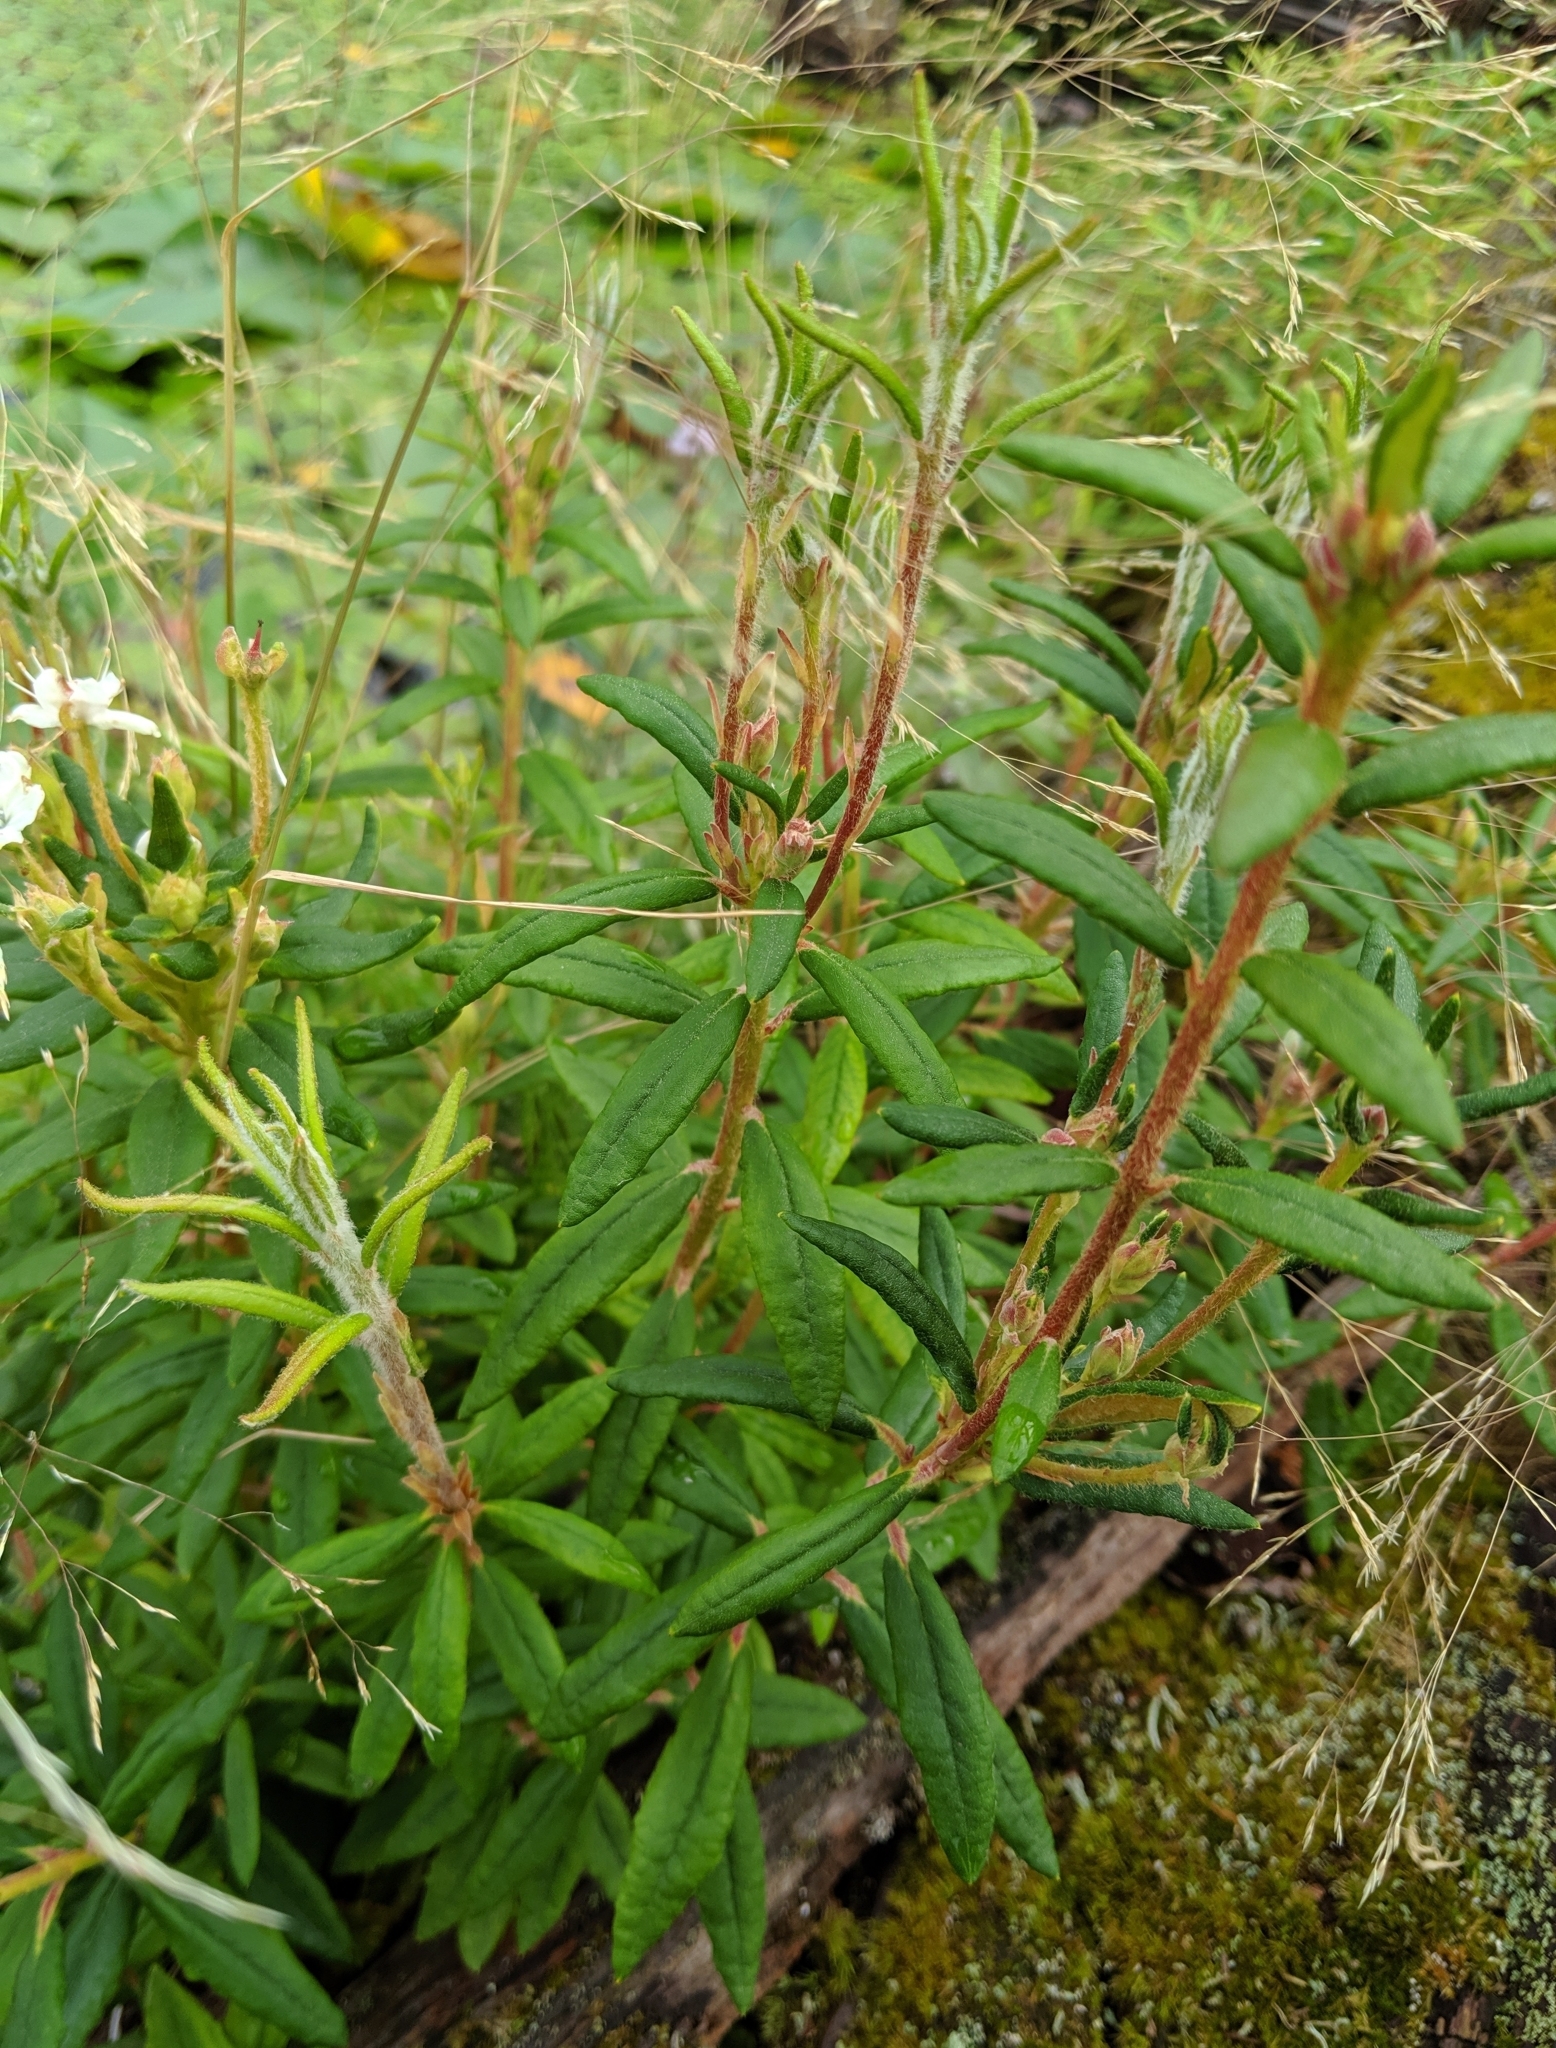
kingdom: Plantae
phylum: Tracheophyta
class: Magnoliopsida
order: Ericales
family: Ericaceae
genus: Rhododendron
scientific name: Rhododendron groenlandicum
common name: Bog labrador tea
